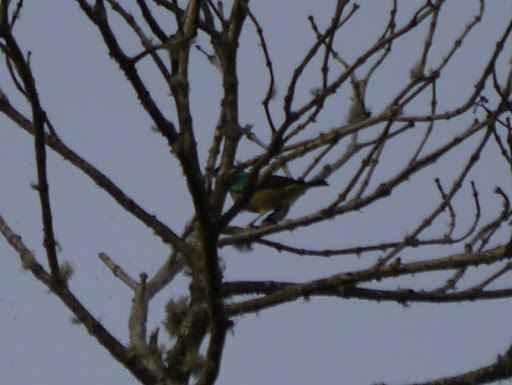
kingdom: Animalia
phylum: Chordata
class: Aves
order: Passeriformes
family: Nectariniidae
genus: Hedydipna
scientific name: Hedydipna collaris
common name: Collared sunbird
